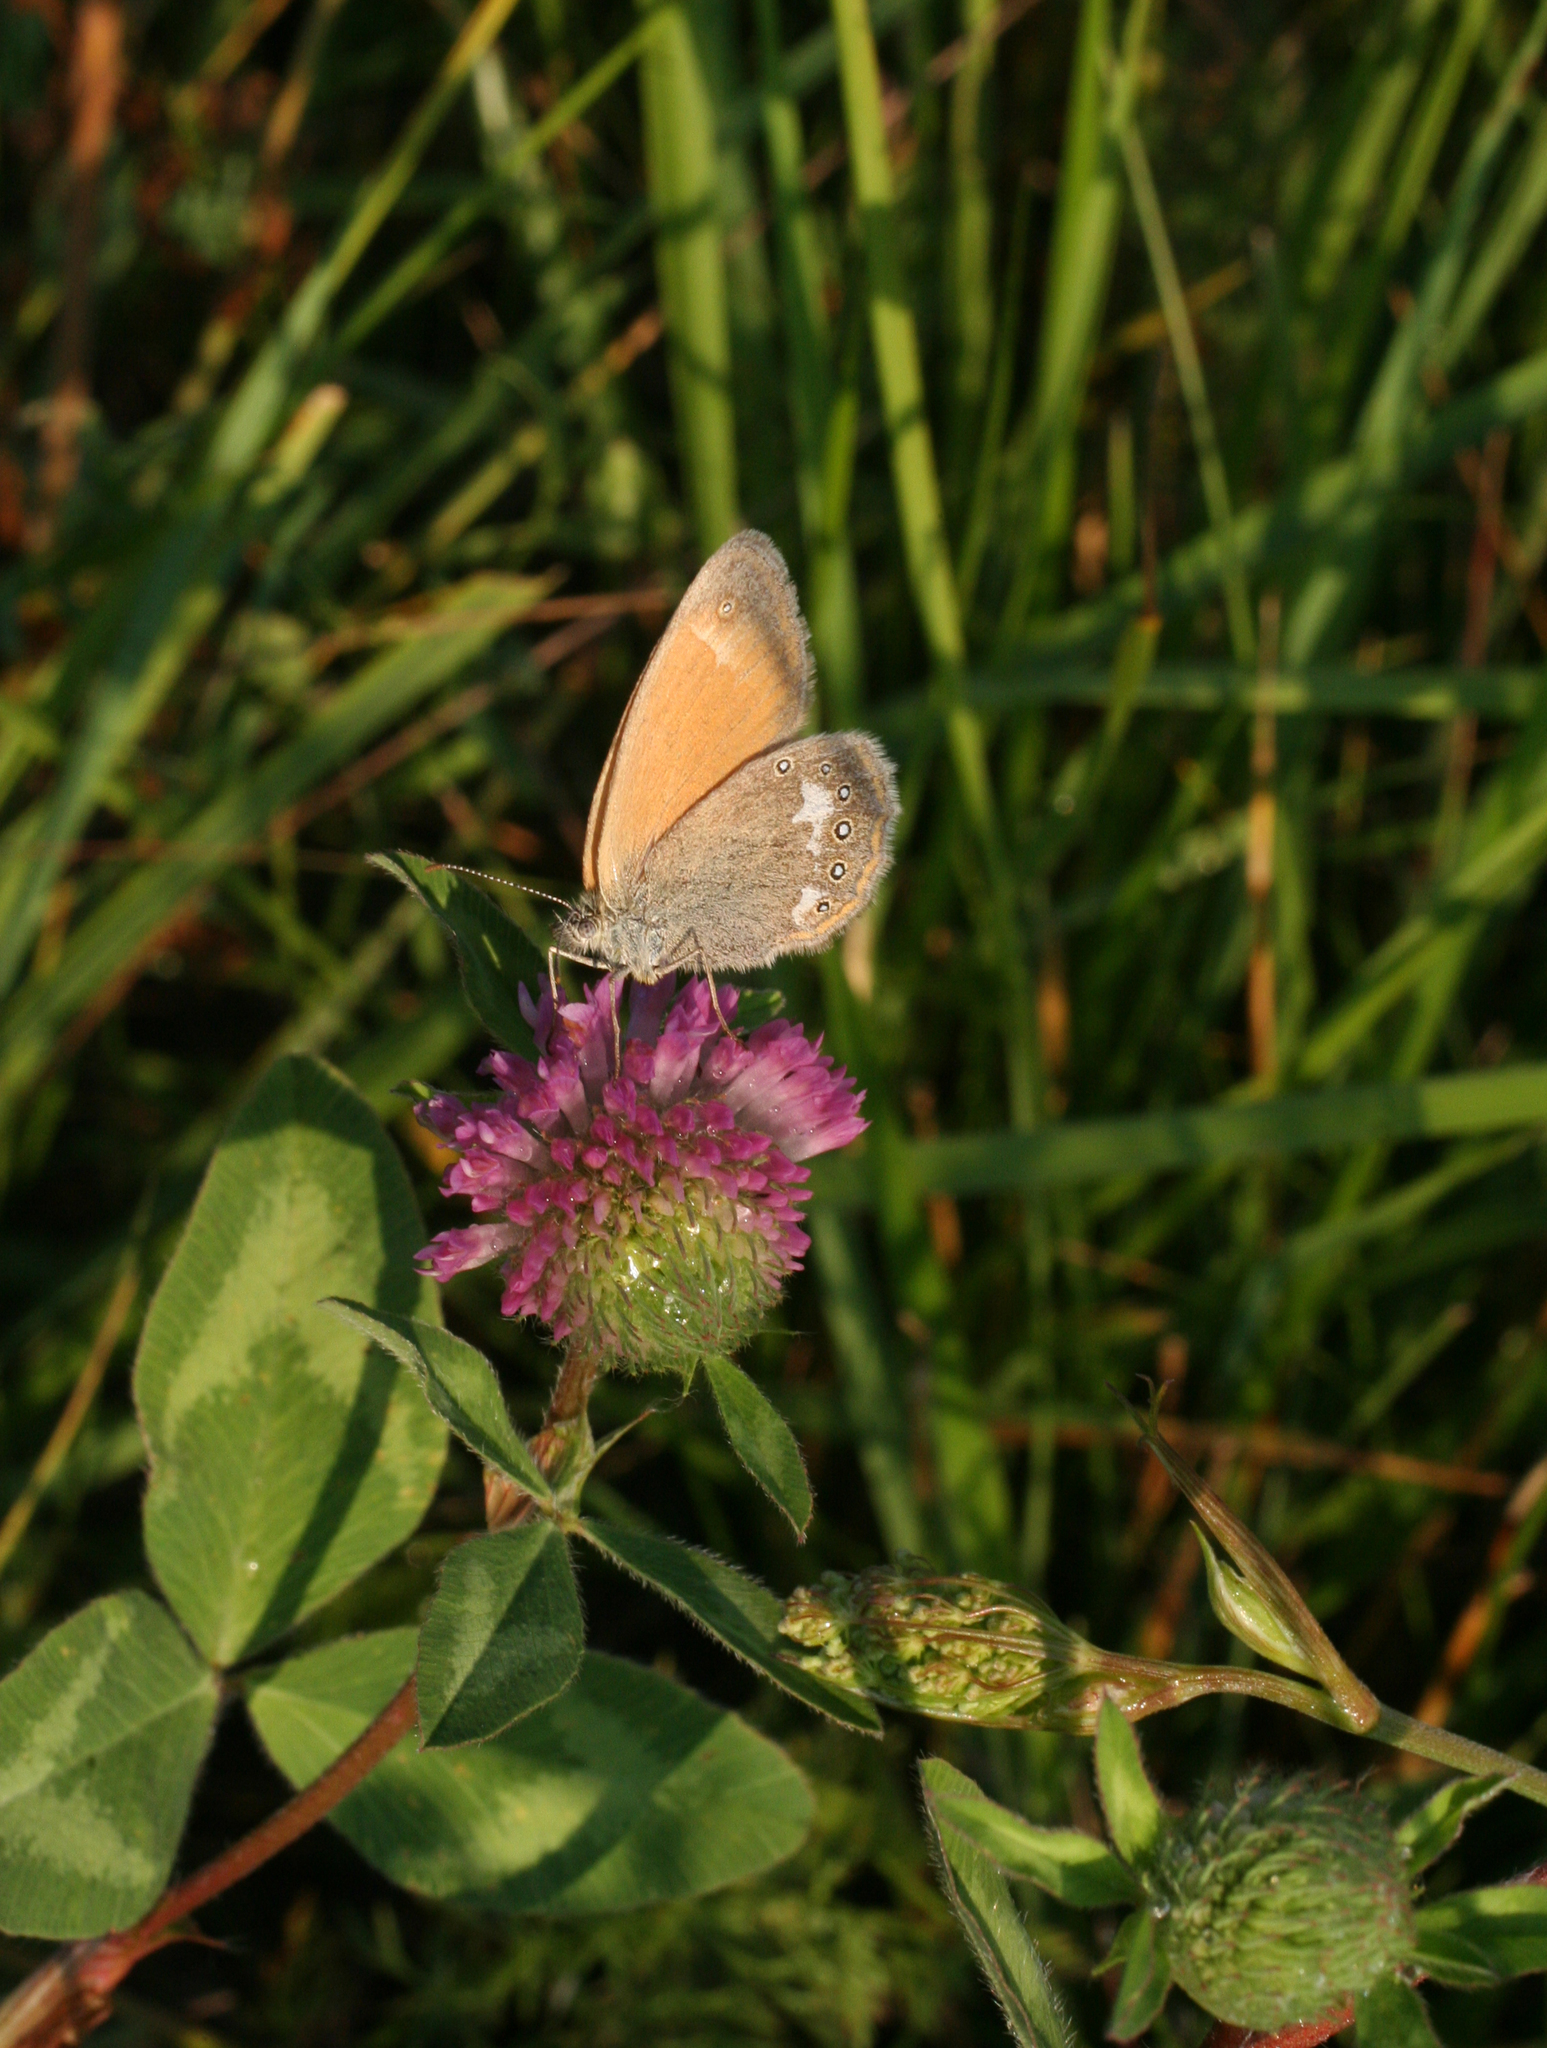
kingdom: Animalia
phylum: Arthropoda
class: Insecta
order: Lepidoptera
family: Nymphalidae
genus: Coenonympha
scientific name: Coenonympha iphis
